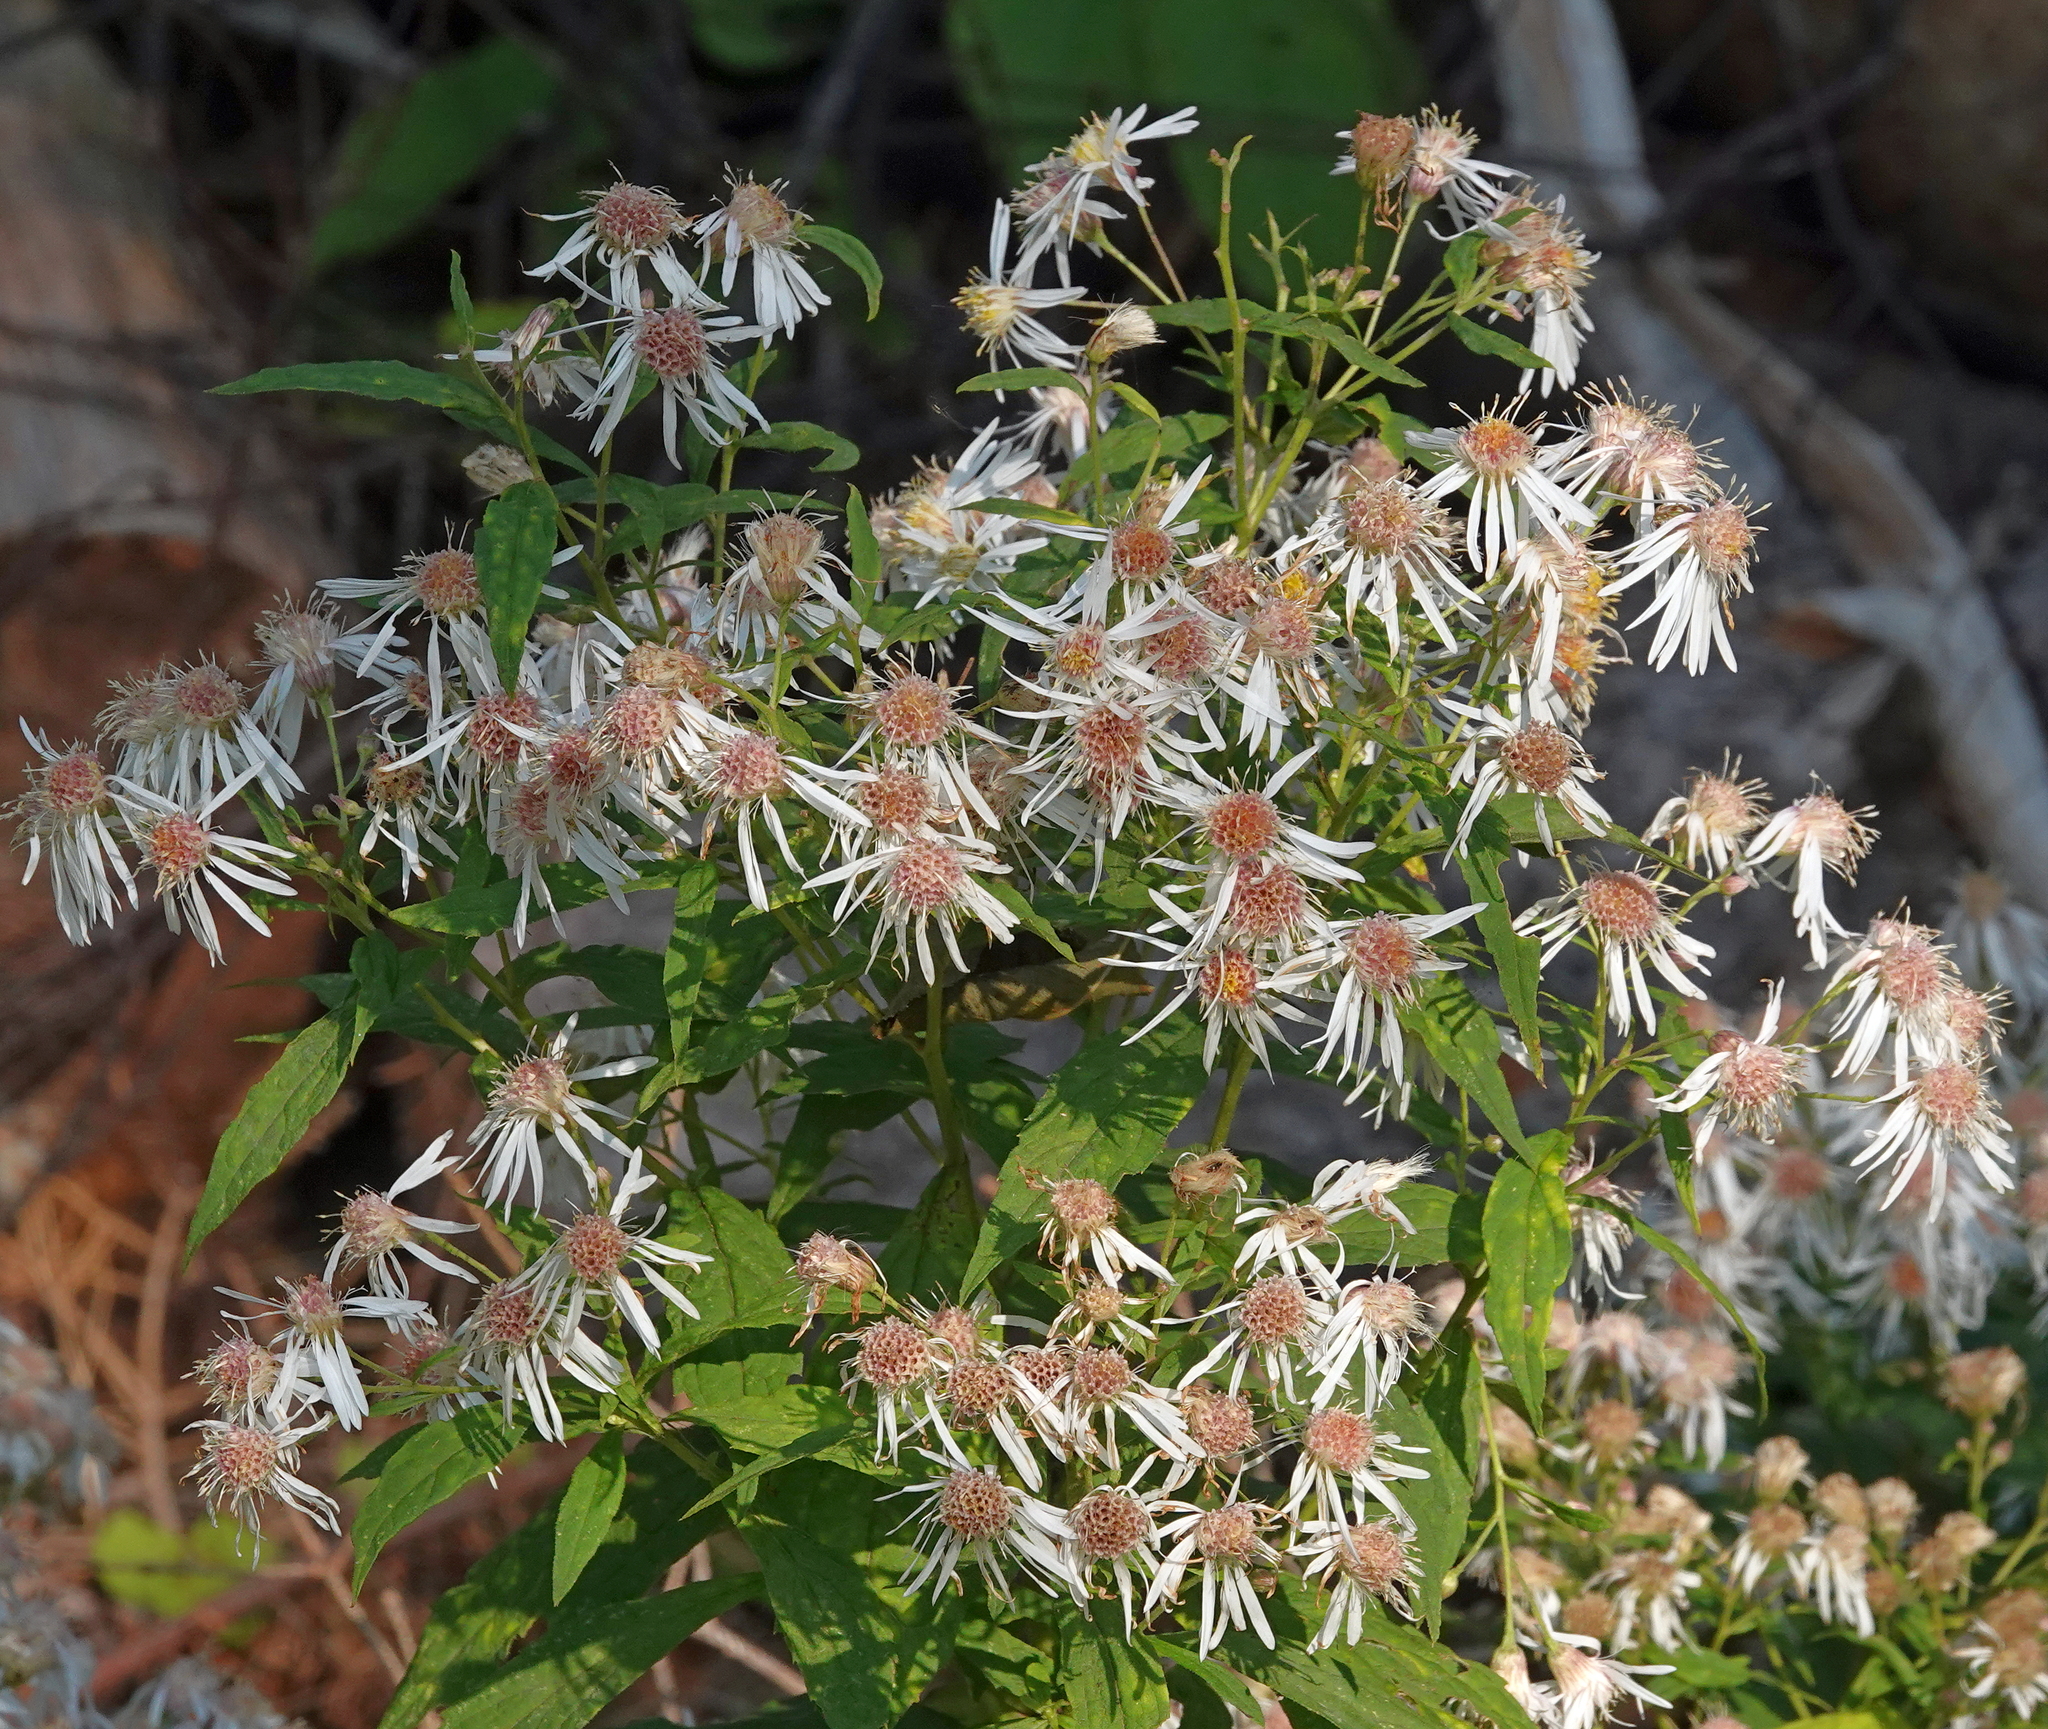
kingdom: Plantae
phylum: Tracheophyta
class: Magnoliopsida
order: Asterales
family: Asteraceae
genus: Oclemena
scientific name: Oclemena acuminata
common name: Mountain aster
